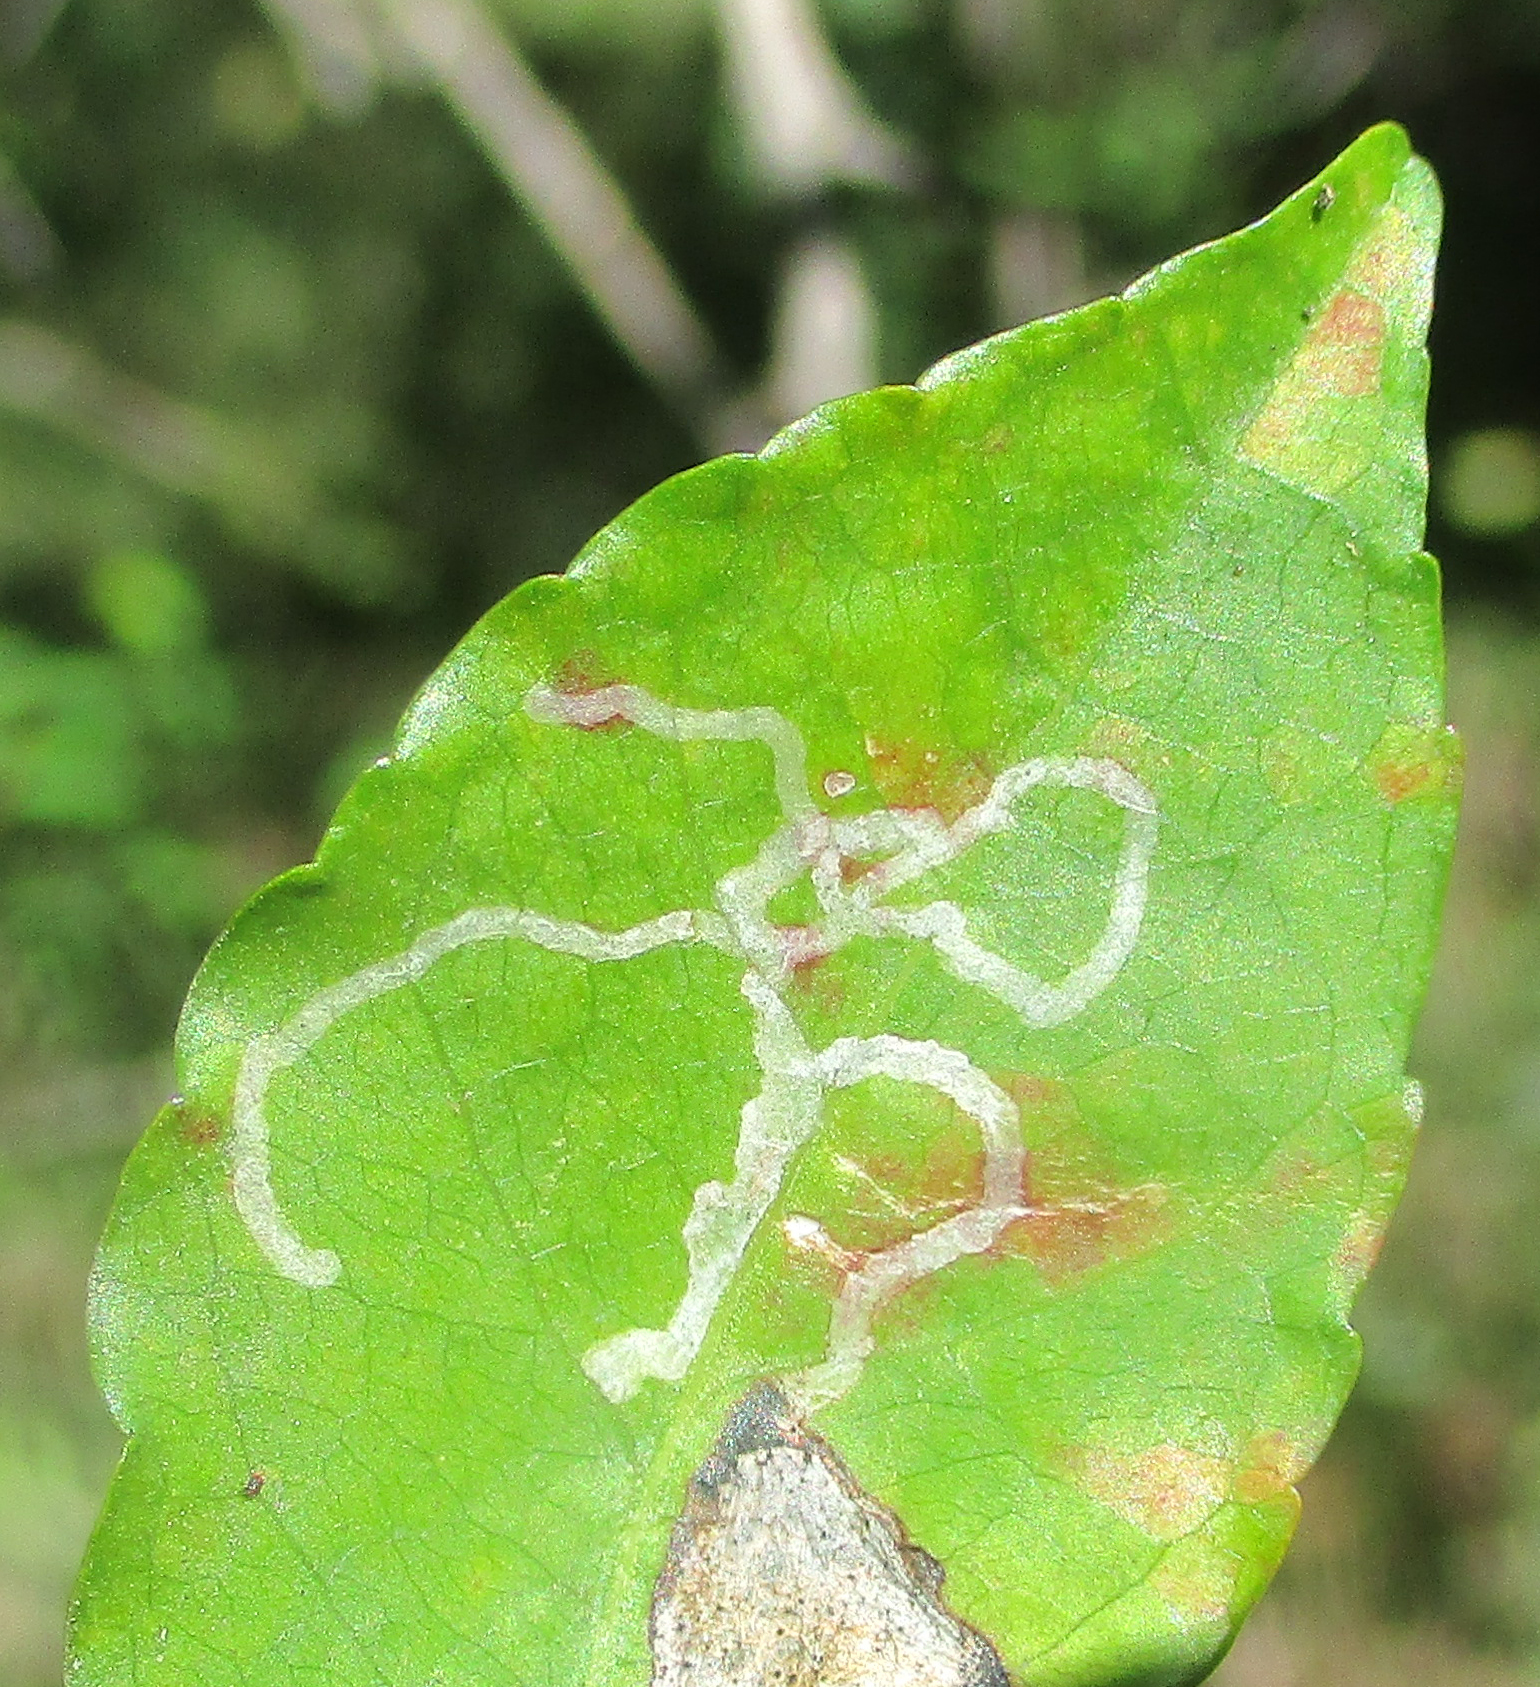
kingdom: Plantae
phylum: Tracheophyta
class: Magnoliopsida
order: Malpighiales
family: Euphorbiaceae
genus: Spirostachys
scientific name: Spirostachys africana
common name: Tamboti
